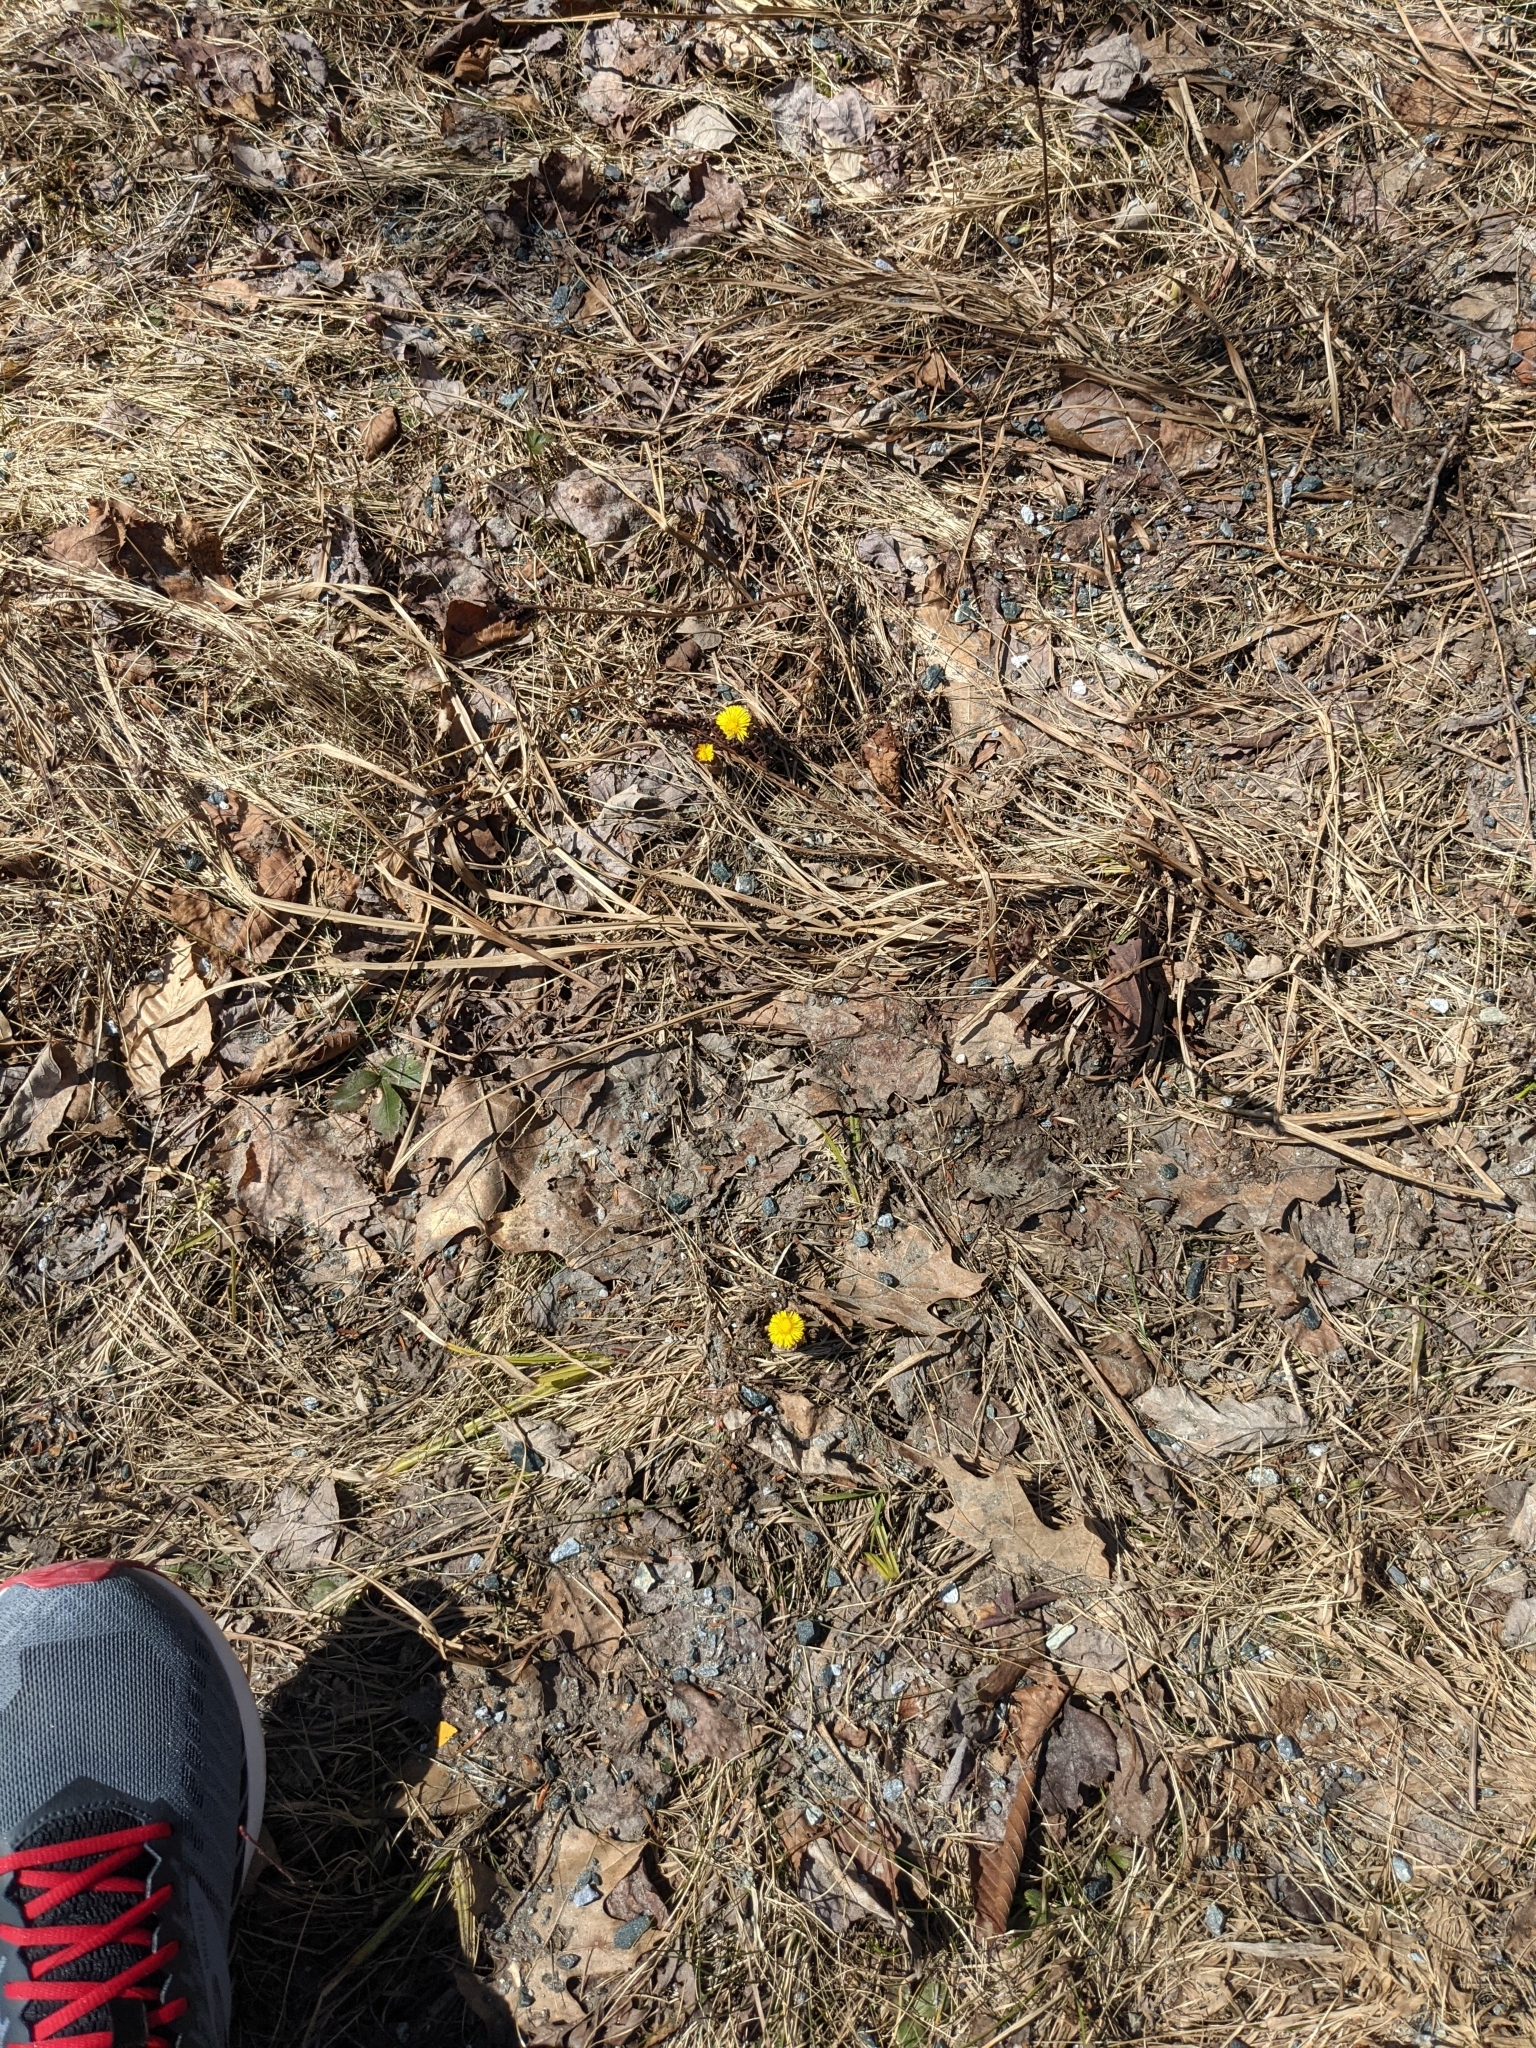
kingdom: Plantae
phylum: Tracheophyta
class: Magnoliopsida
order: Asterales
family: Asteraceae
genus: Tussilago
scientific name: Tussilago farfara
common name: Coltsfoot
